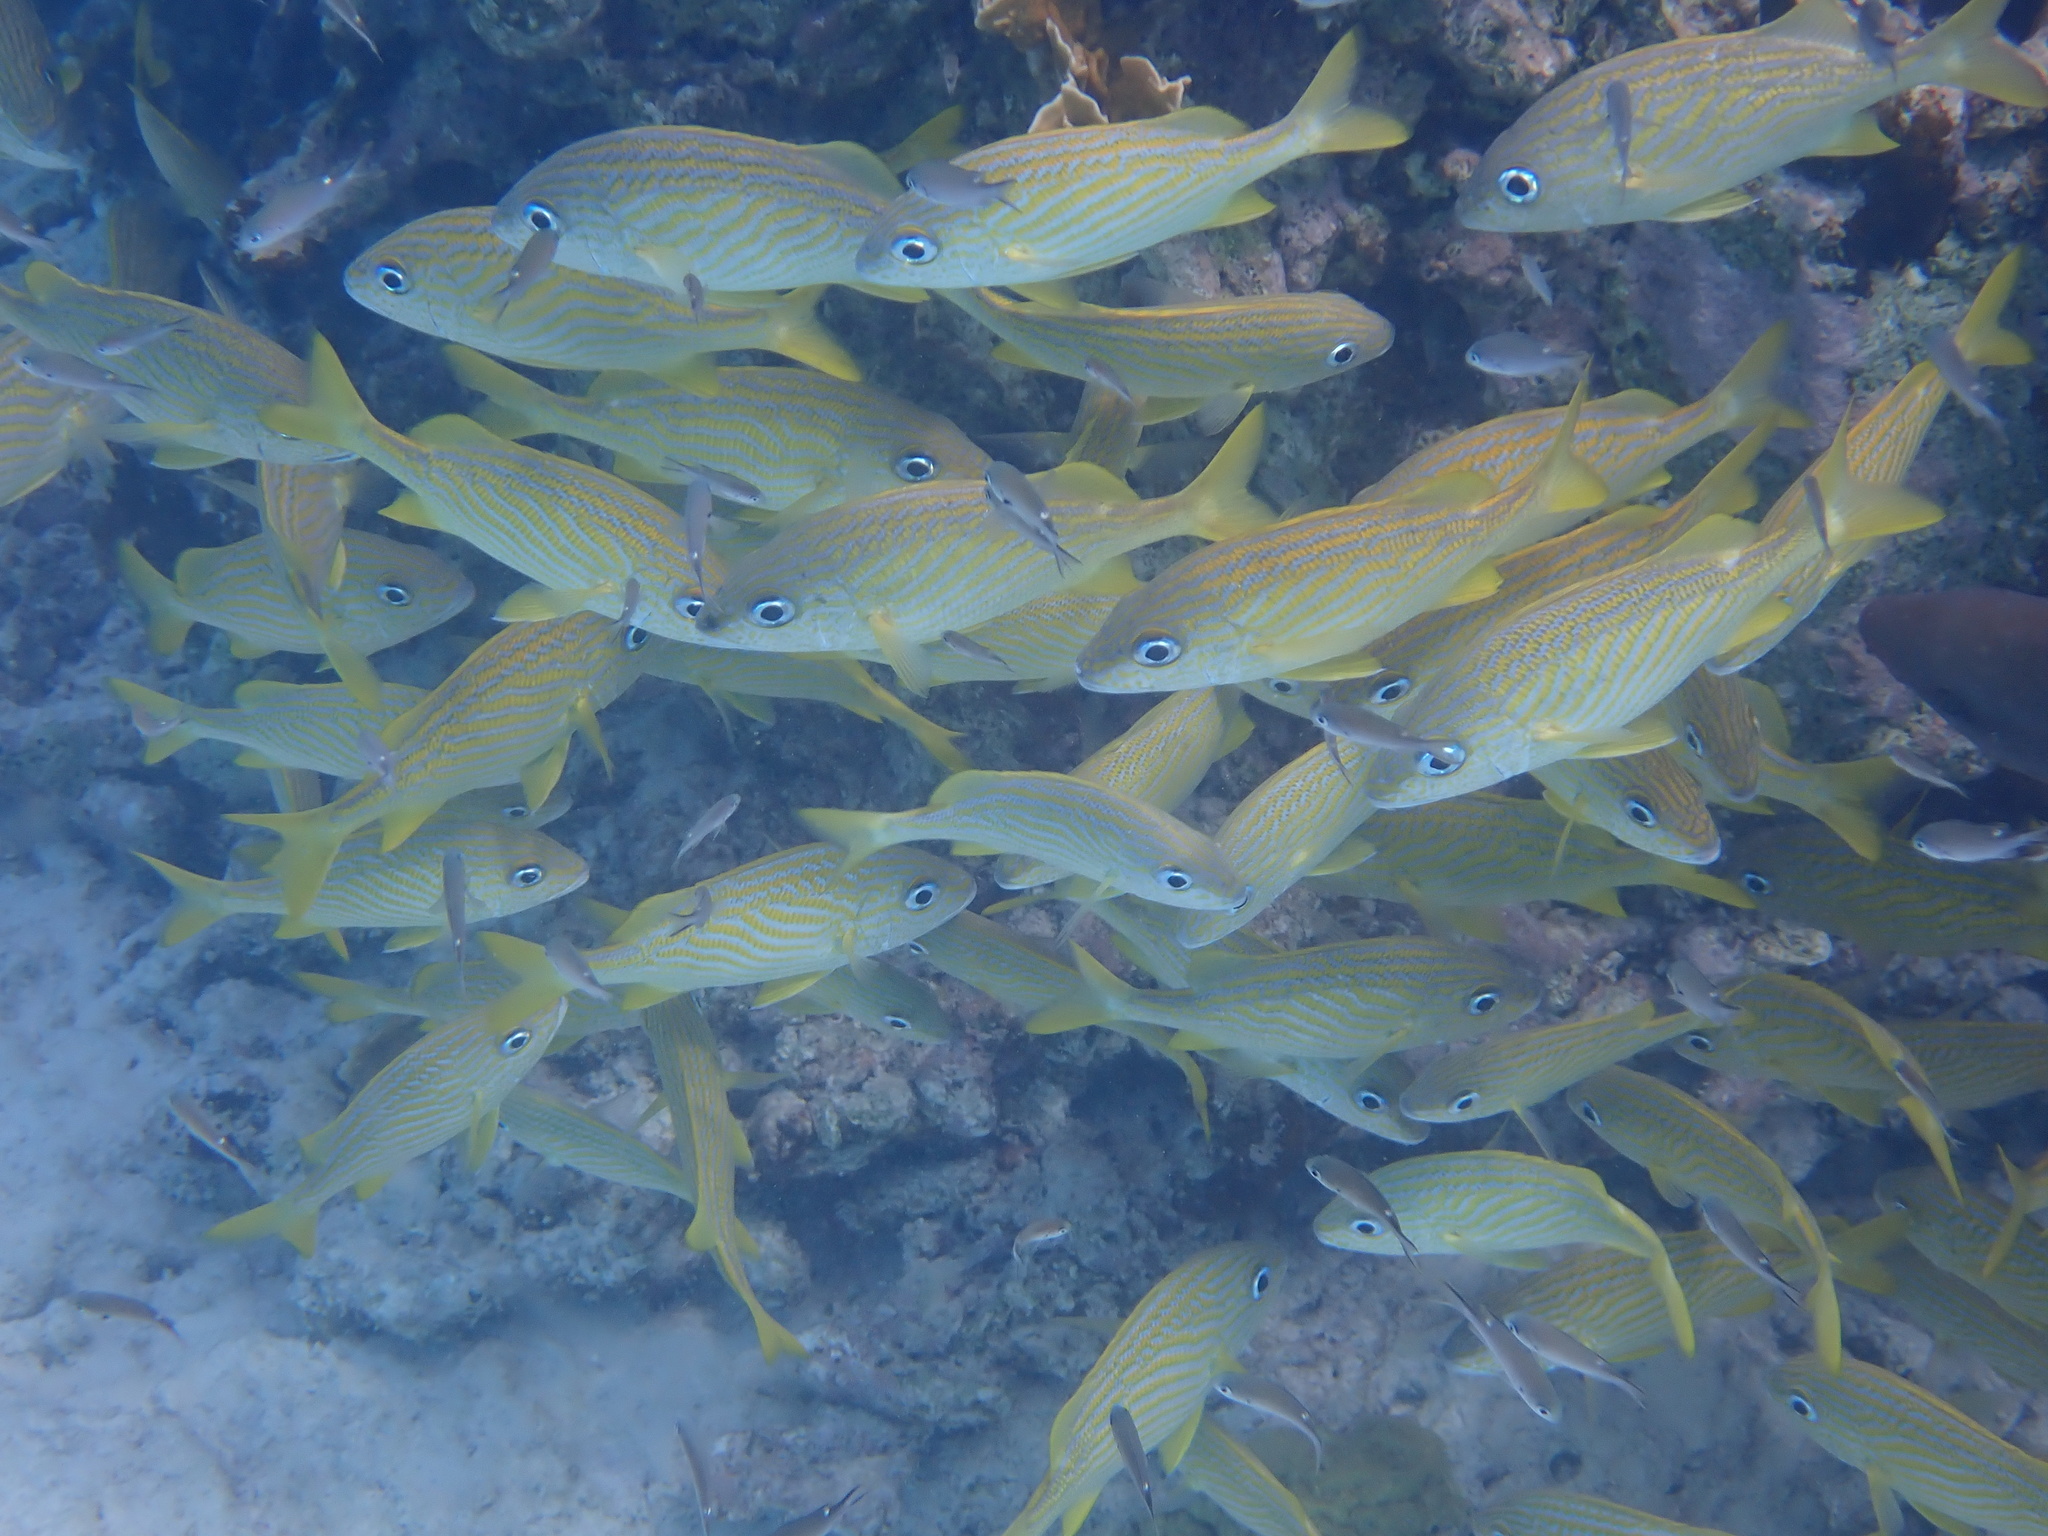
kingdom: Animalia
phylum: Chordata
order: Perciformes
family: Haemulidae
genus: Haemulon
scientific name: Haemulon flavolineatum
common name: French grunt
